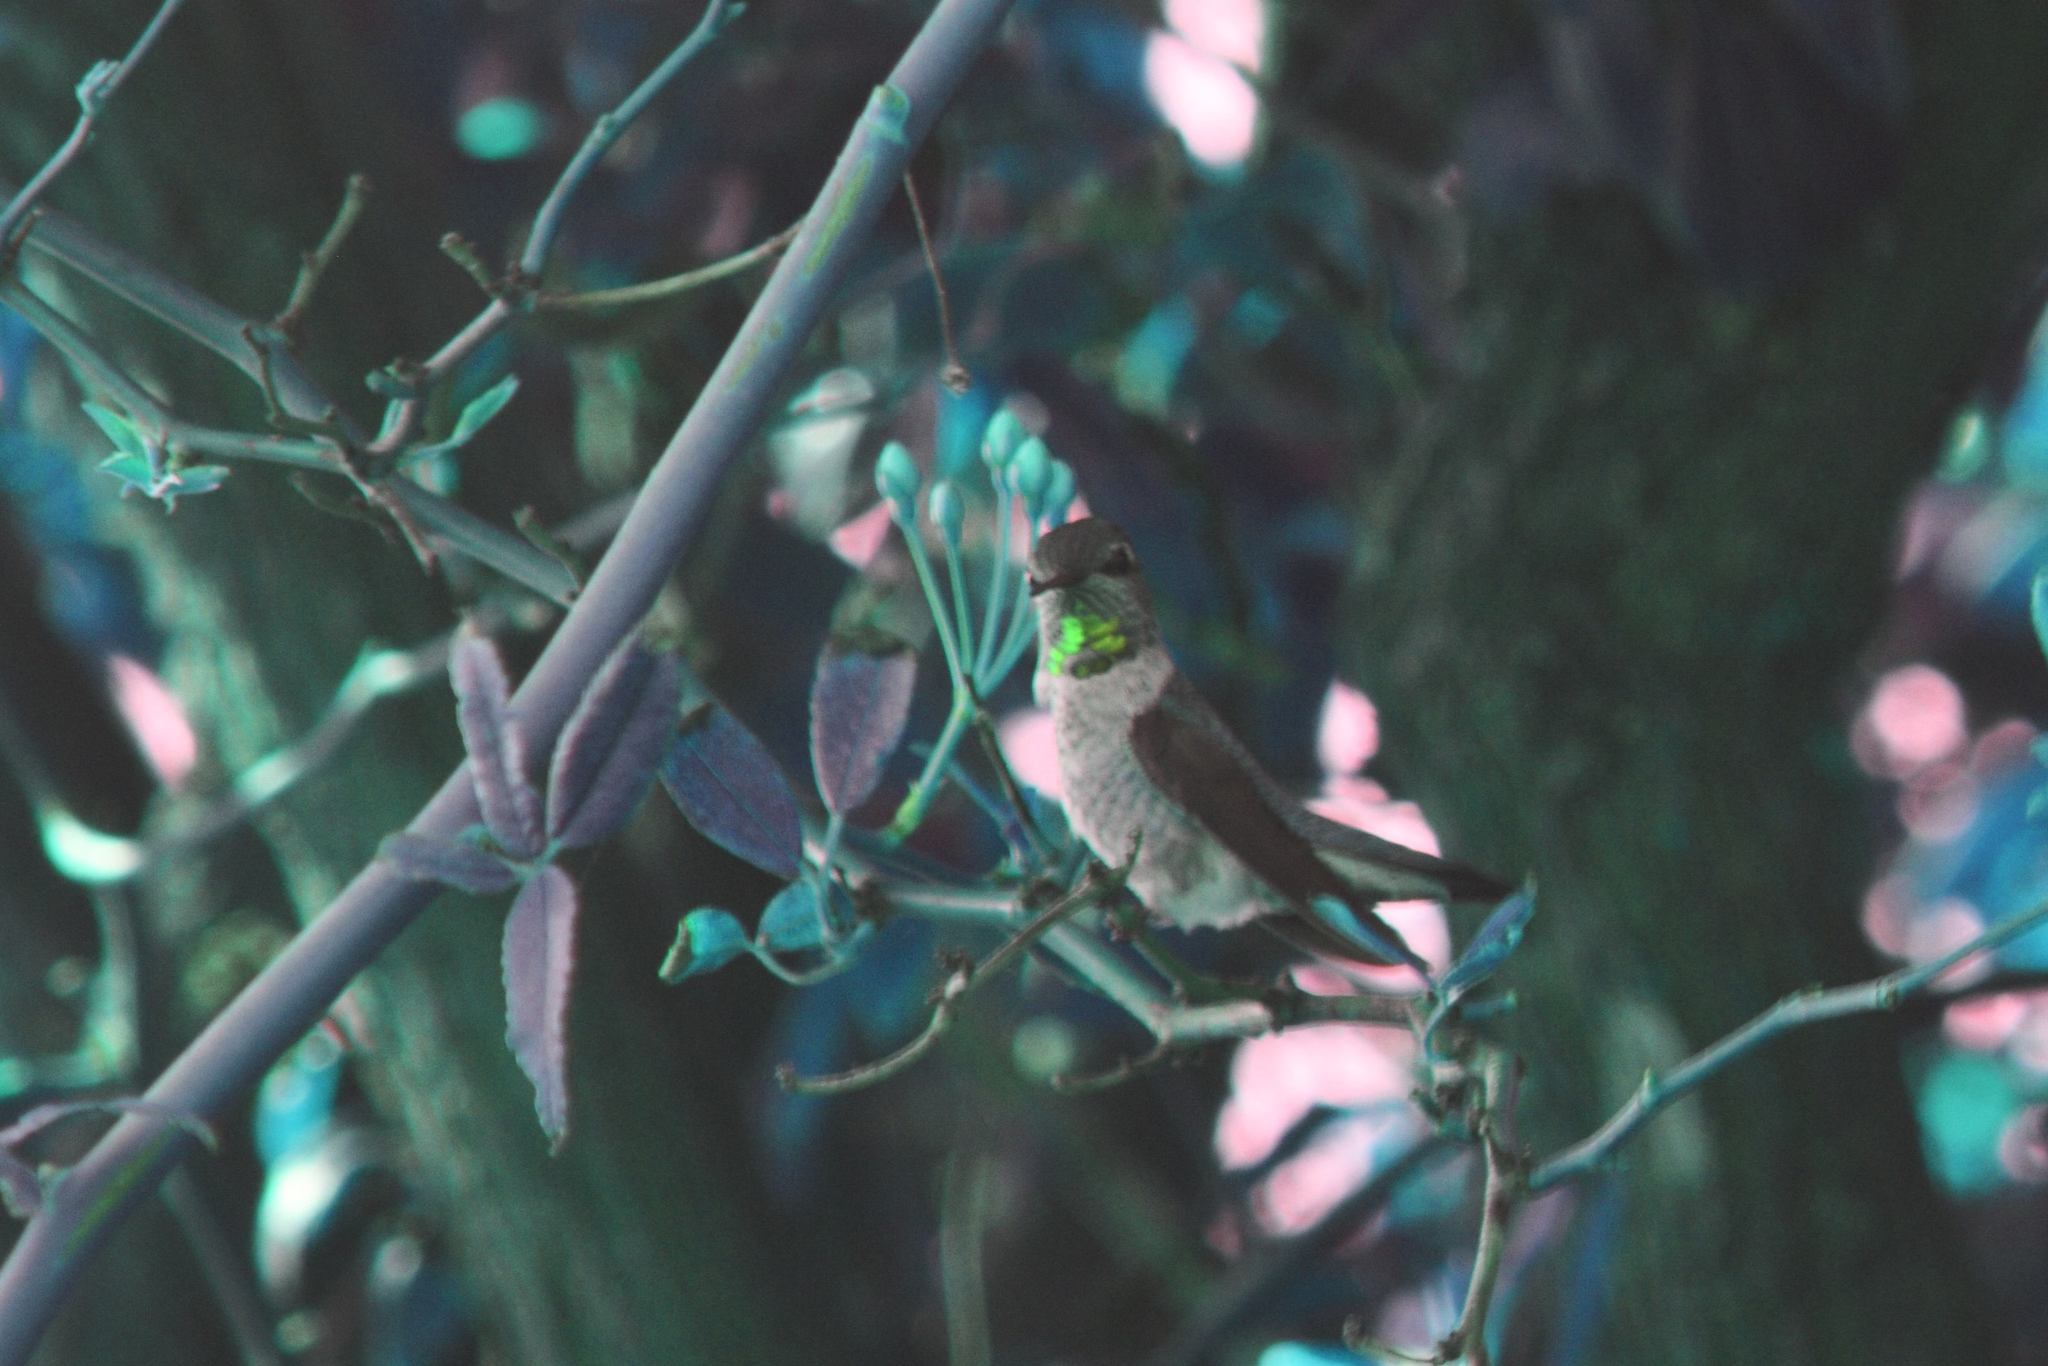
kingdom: Animalia
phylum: Chordata
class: Aves
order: Apodiformes
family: Trochilidae
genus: Calypte
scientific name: Calypte anna
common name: Anna's hummingbird
